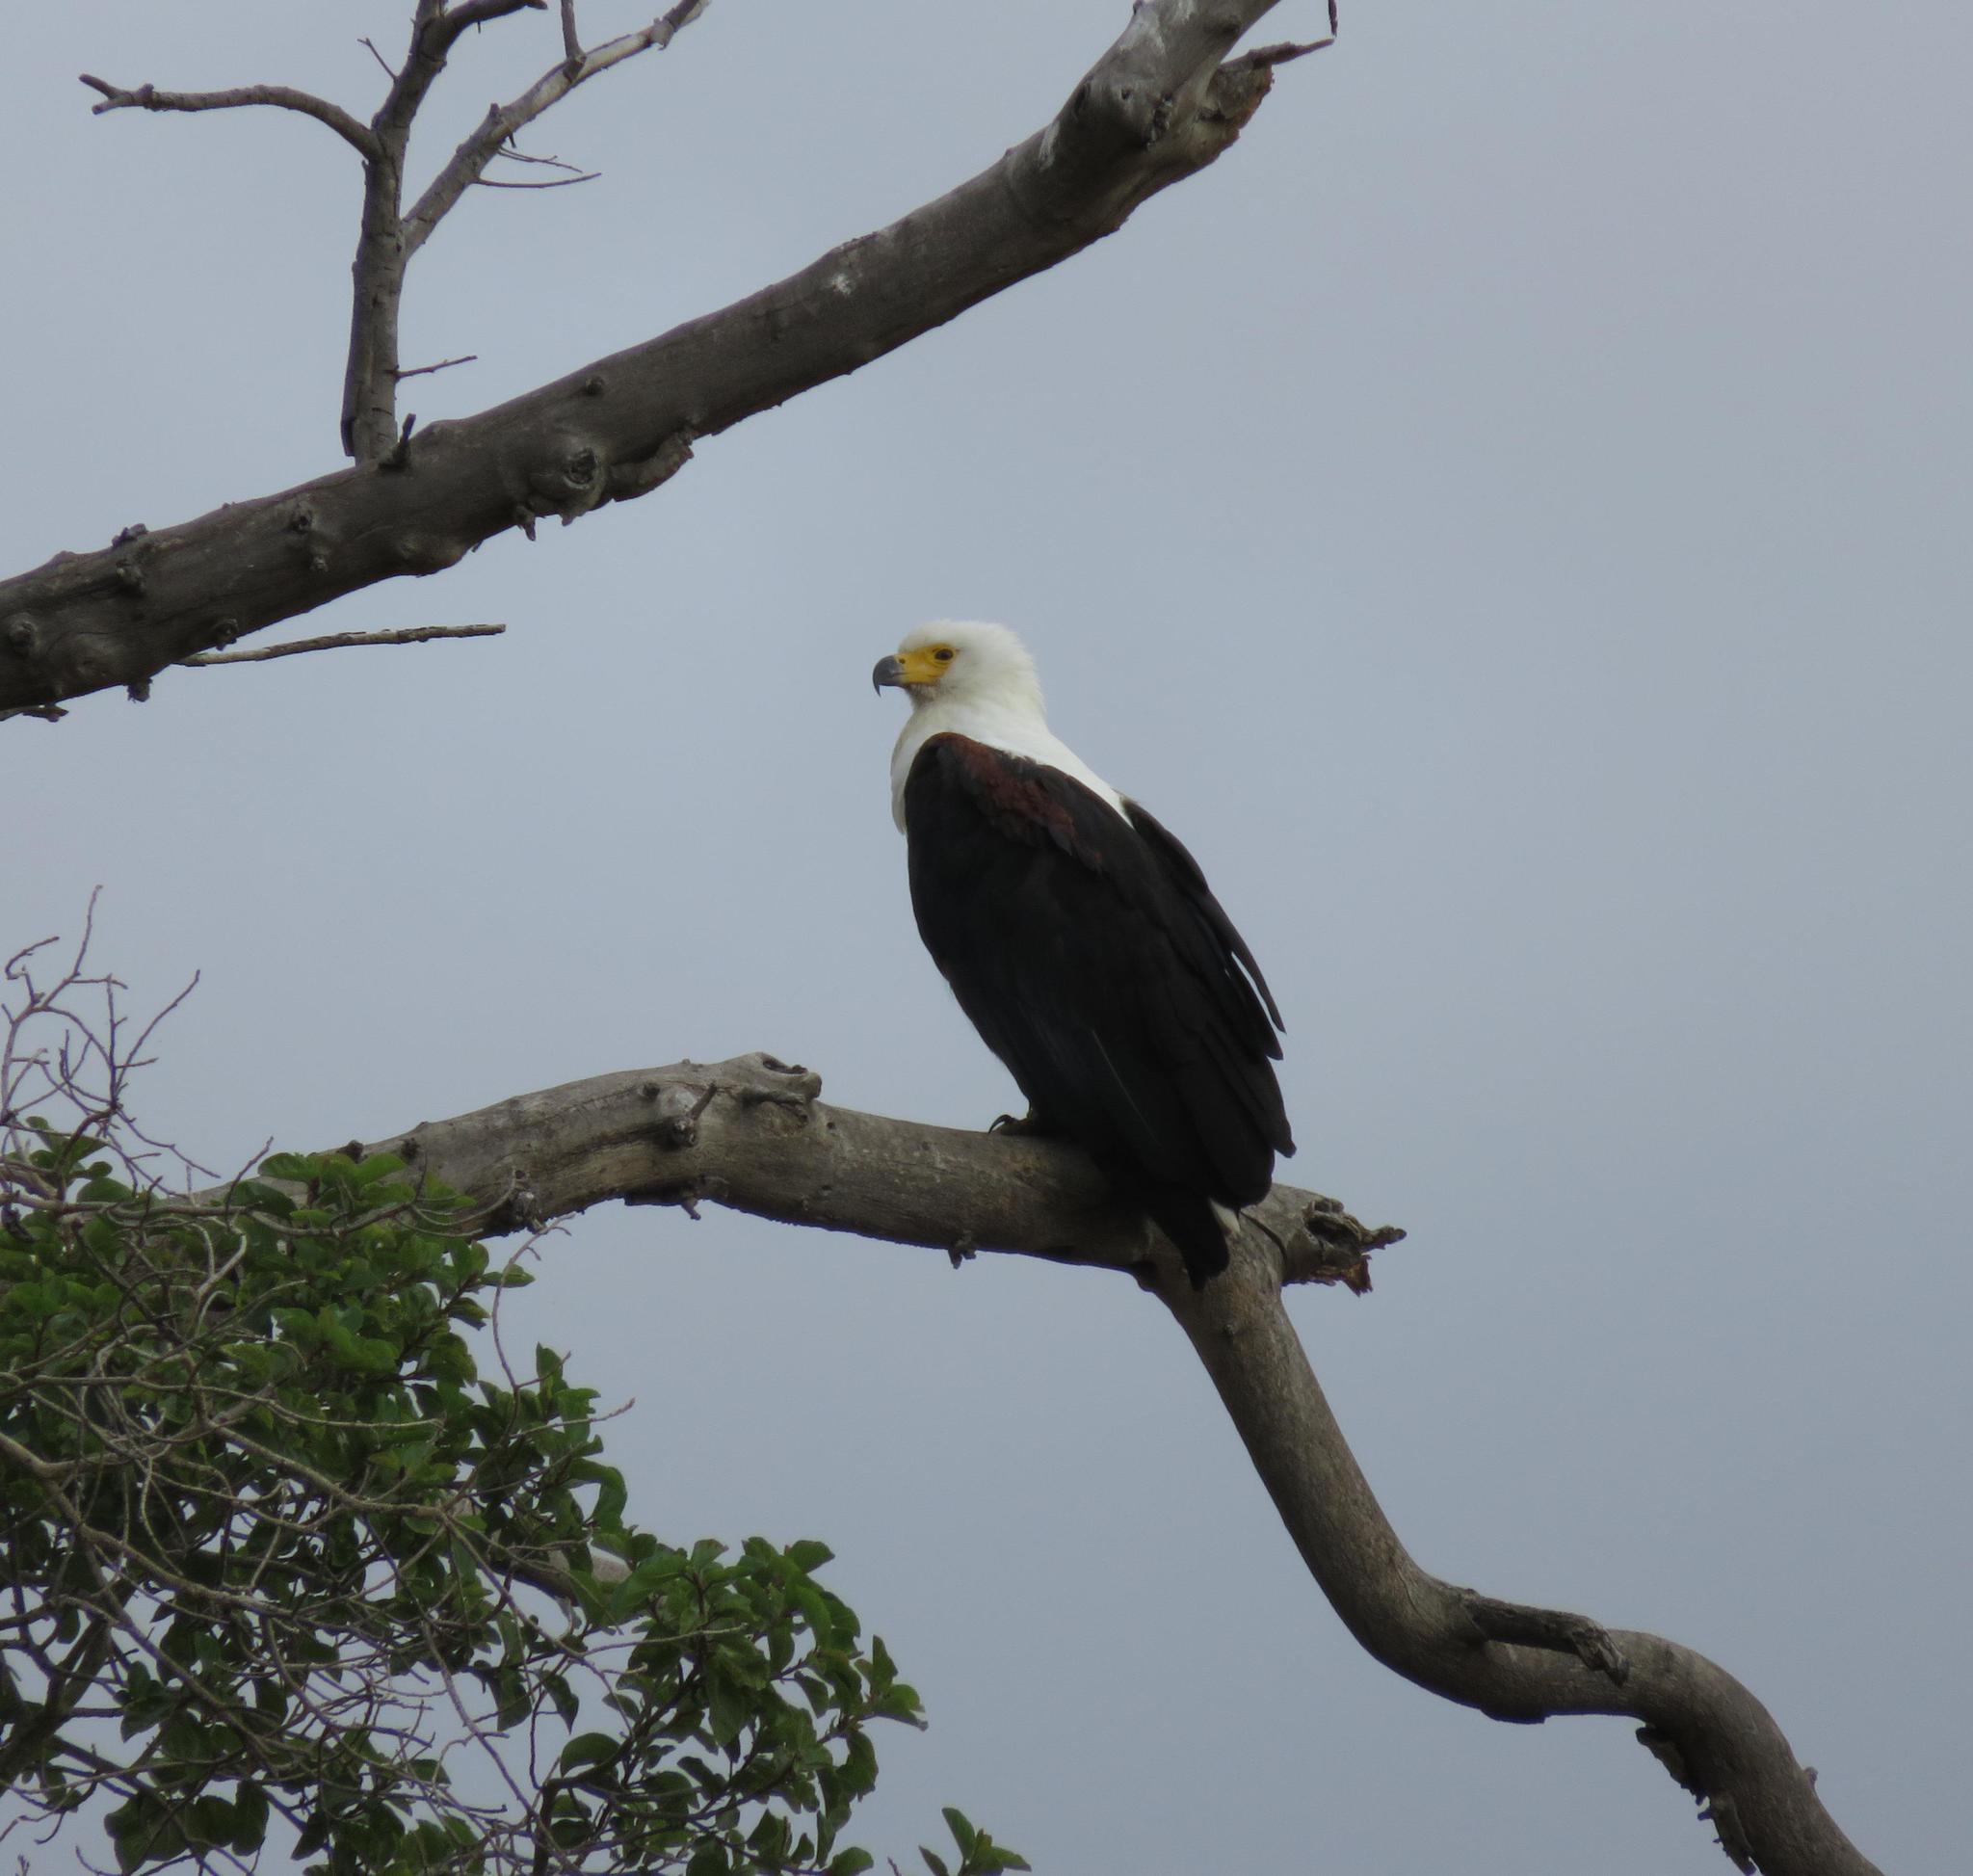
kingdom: Animalia
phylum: Chordata
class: Aves
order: Accipitriformes
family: Accipitridae
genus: Haliaeetus
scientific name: Haliaeetus vocifer
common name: African fish eagle
